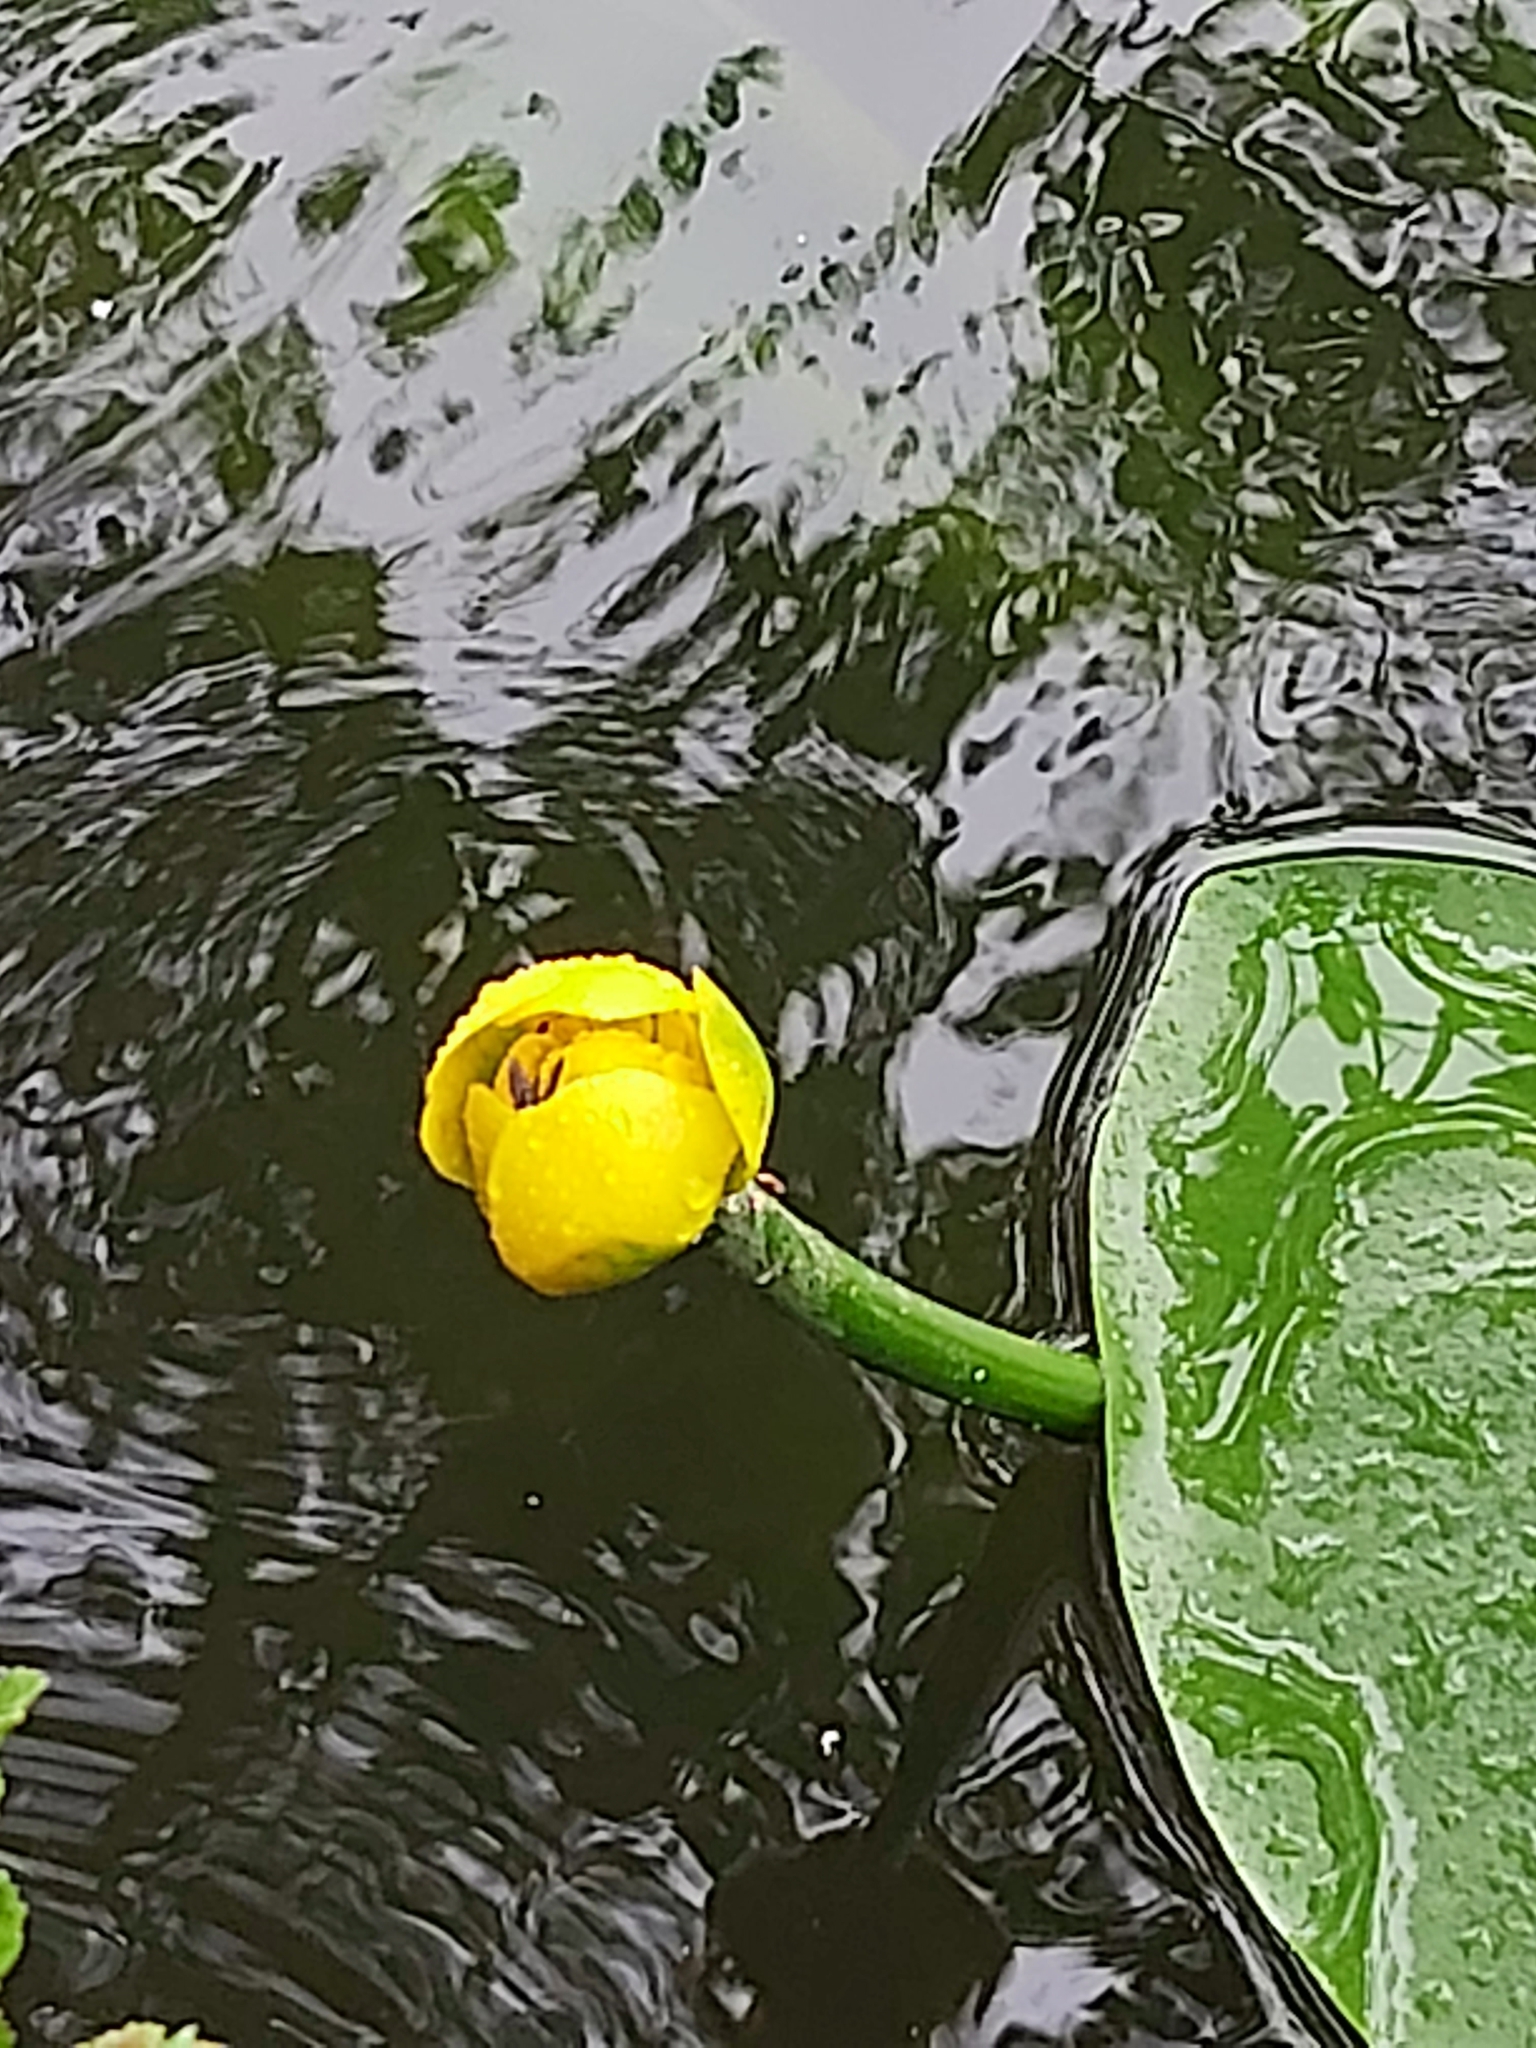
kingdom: Plantae
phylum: Tracheophyta
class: Magnoliopsida
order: Nymphaeales
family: Nymphaeaceae
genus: Nuphar
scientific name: Nuphar lutea
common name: Yellow water-lily
